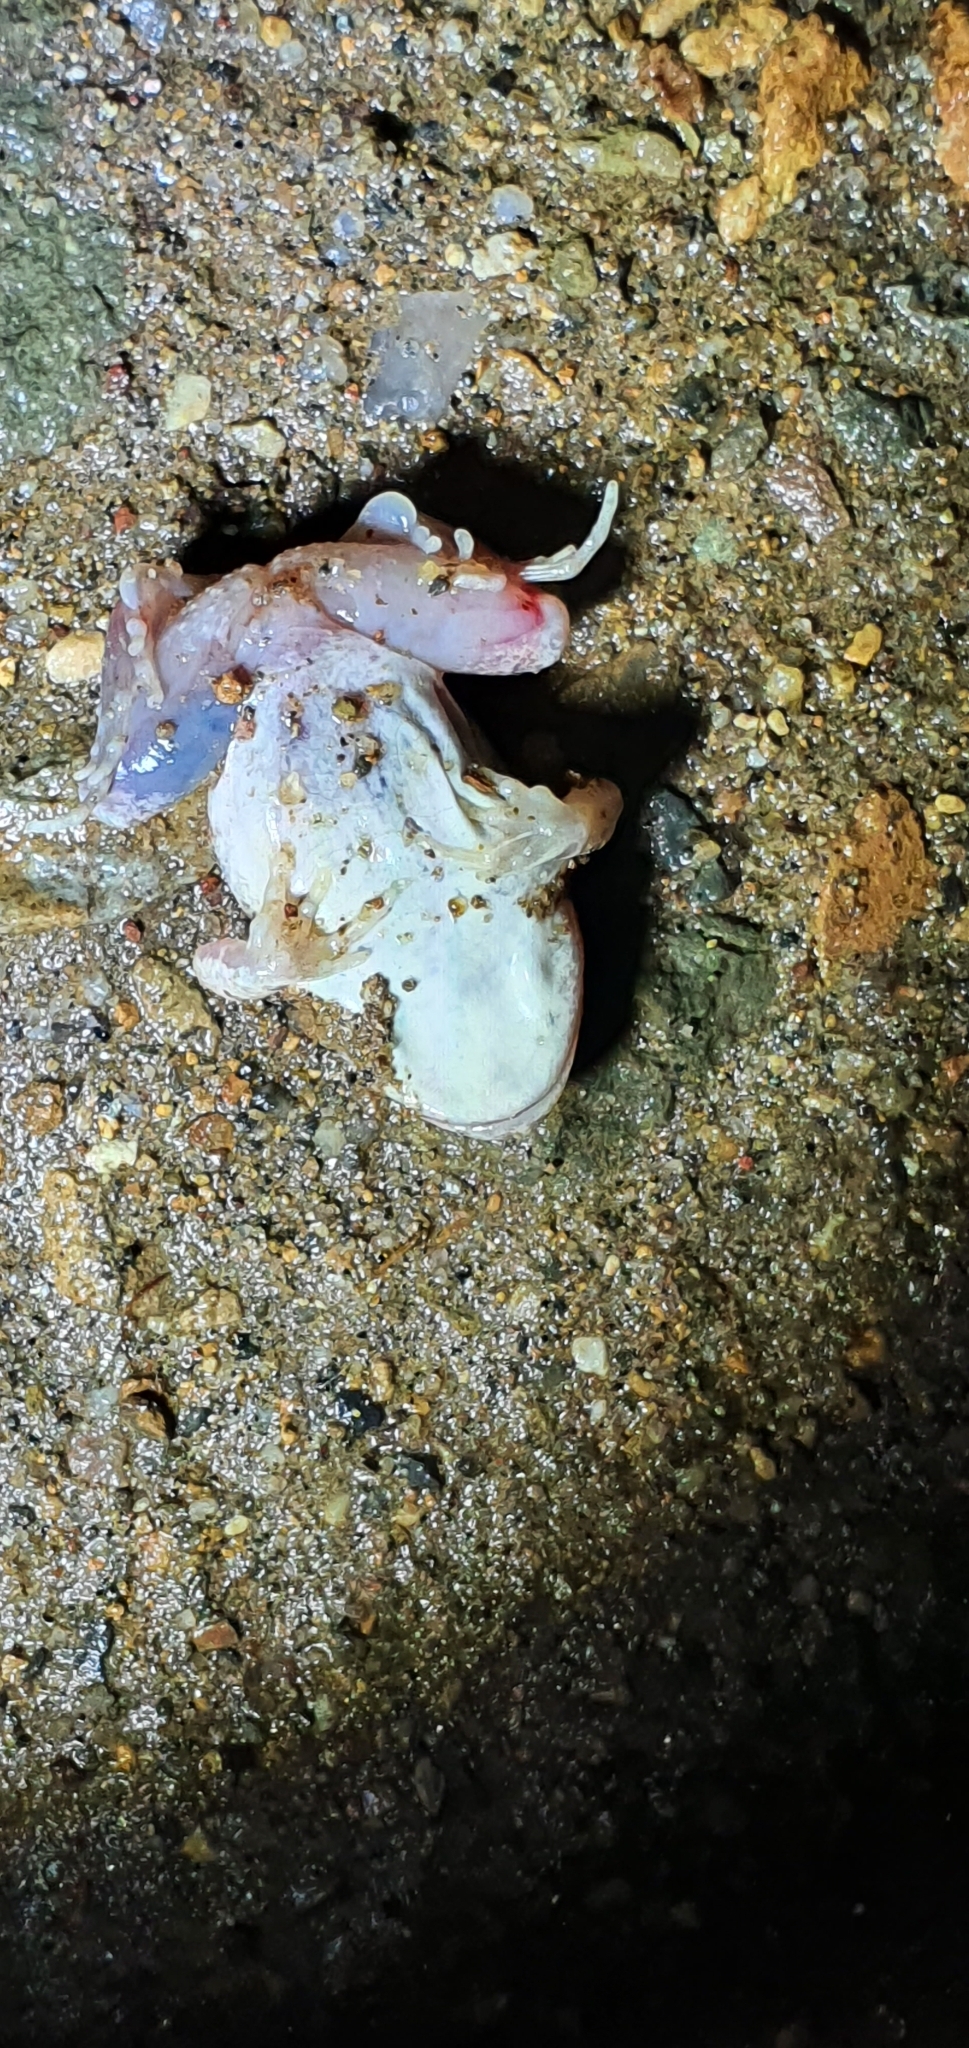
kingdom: Animalia
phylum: Chordata
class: Amphibia
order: Anura
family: Limnodynastidae
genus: Platyplectrum
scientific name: Platyplectrum ornatum
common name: Ornate burrowing frog
